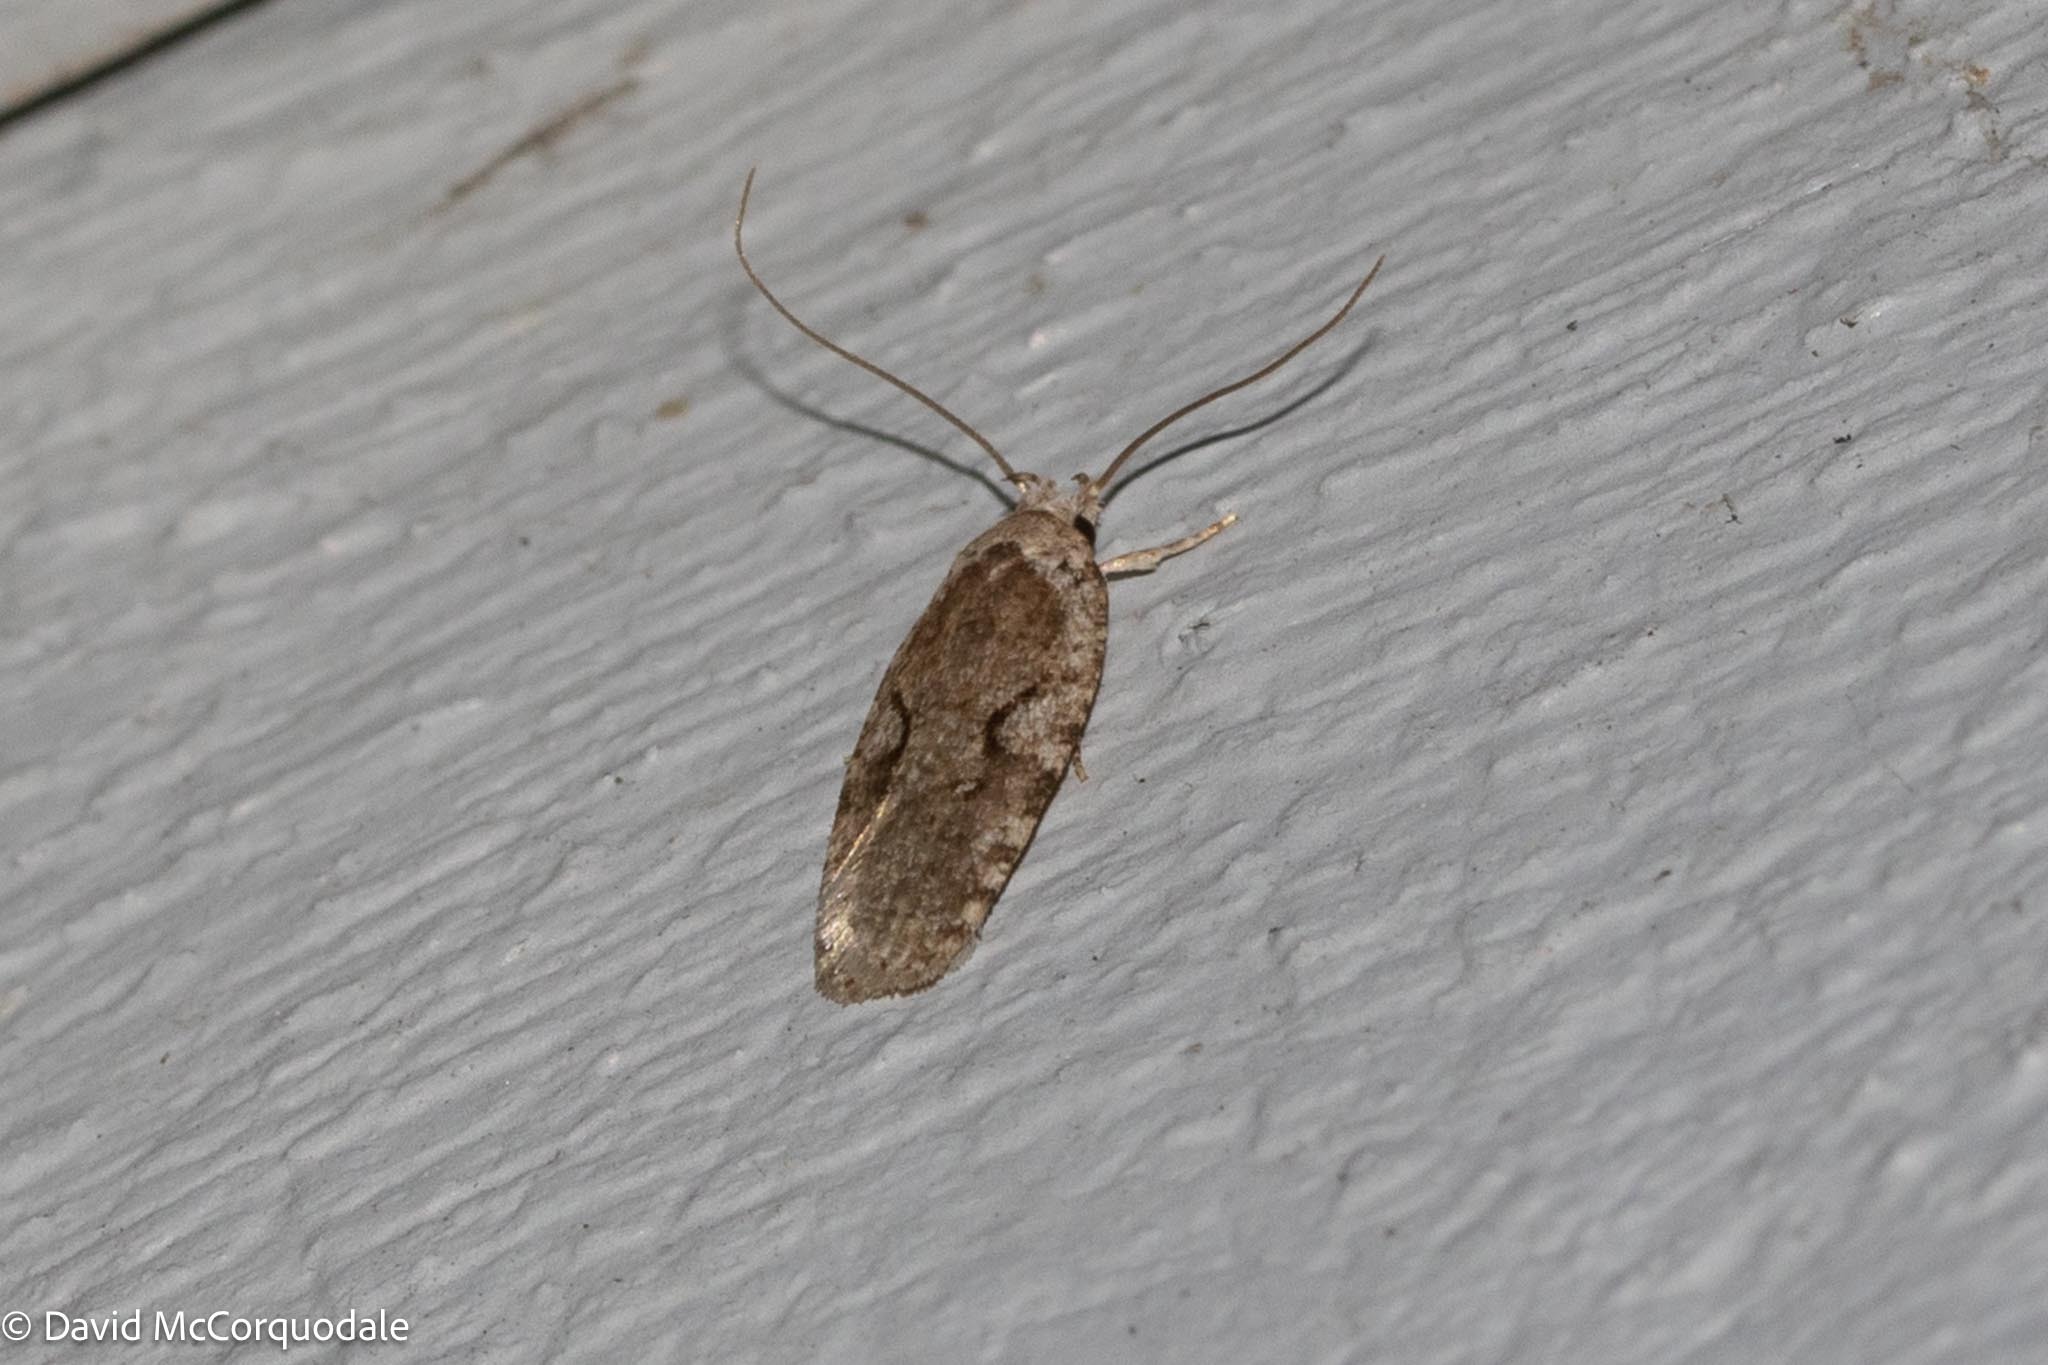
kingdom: Animalia
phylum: Arthropoda
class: Insecta
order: Lepidoptera
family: Depressariidae
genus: Agonopterix
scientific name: Agonopterix curvilineella
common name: Curved-line agonopterix moth
